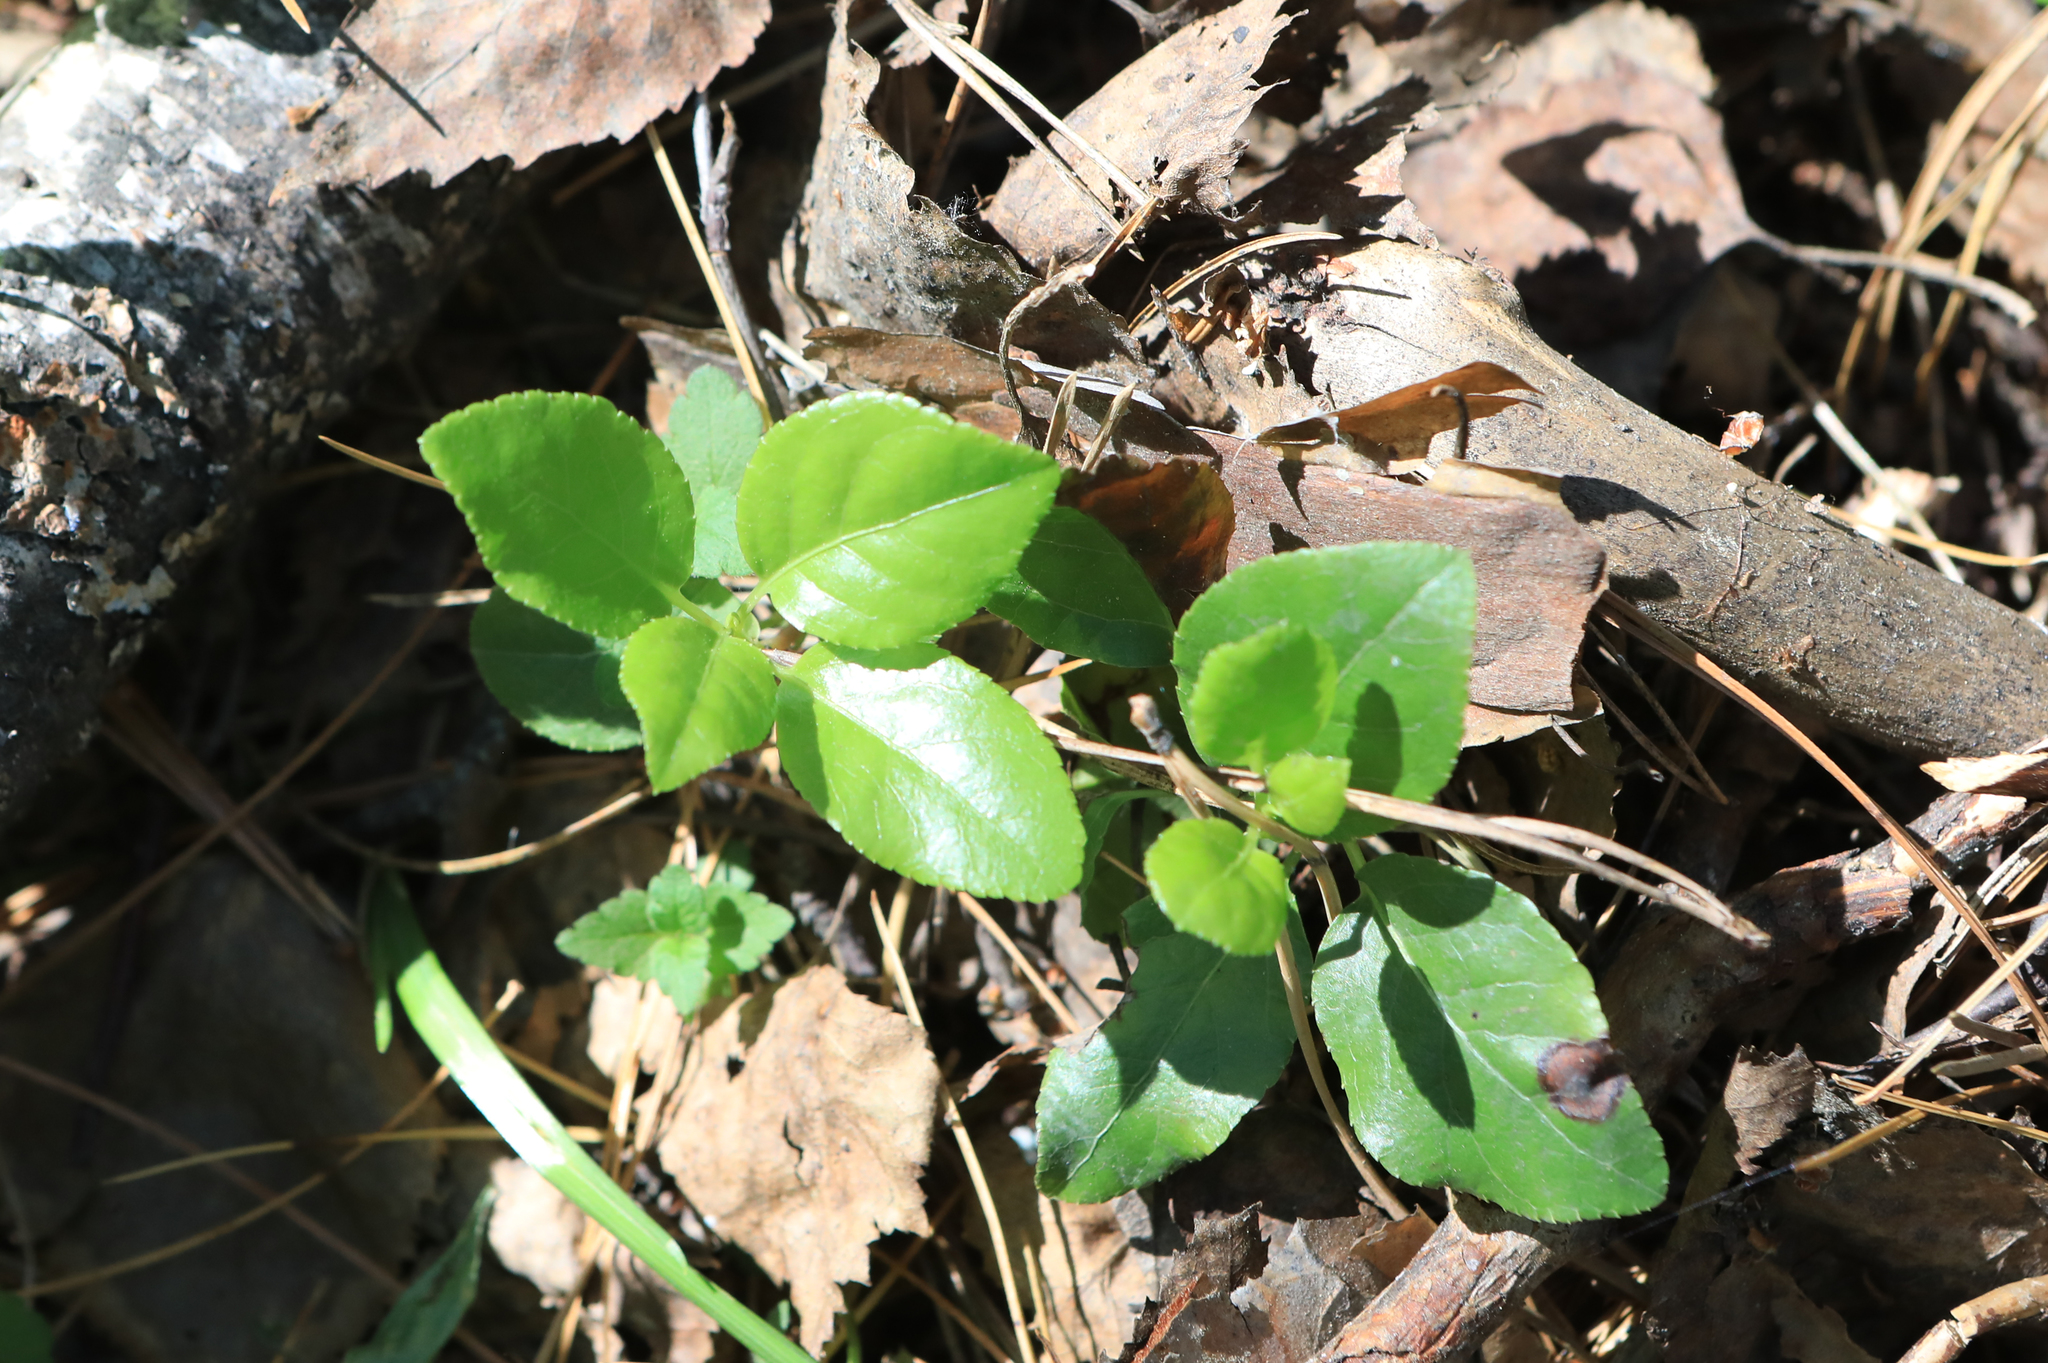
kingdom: Plantae
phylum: Tracheophyta
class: Magnoliopsida
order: Ericales
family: Ericaceae
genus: Orthilia
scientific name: Orthilia secunda
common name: One-sided orthilia
